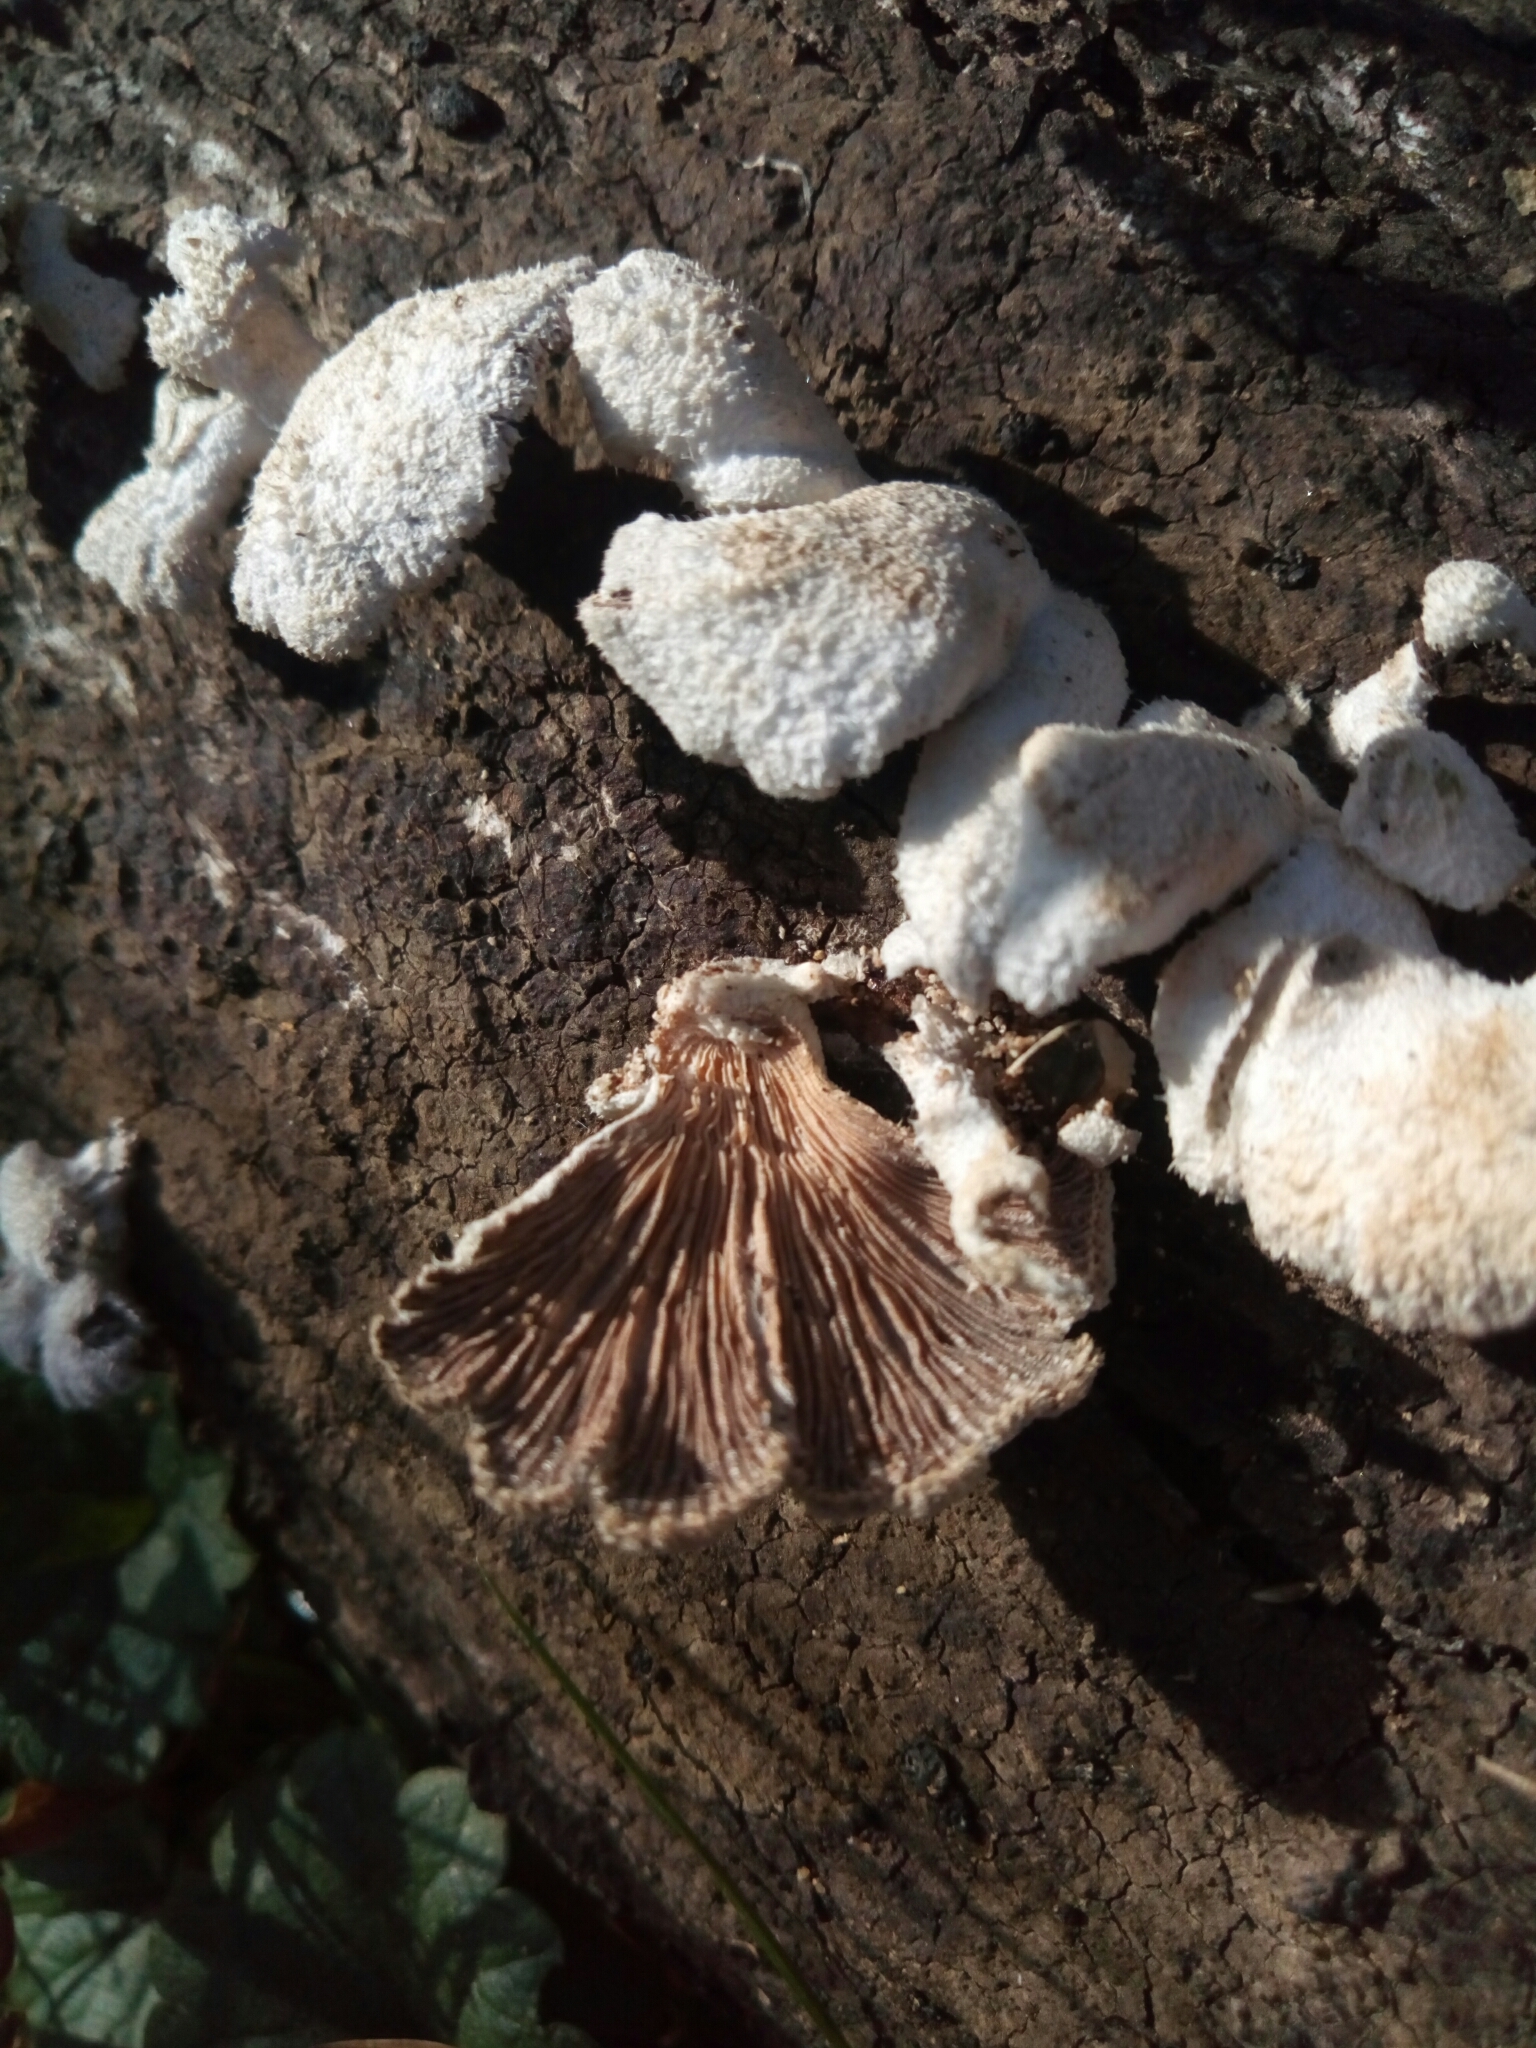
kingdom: Fungi
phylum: Basidiomycota
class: Agaricomycetes
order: Agaricales
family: Schizophyllaceae
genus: Schizophyllum
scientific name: Schizophyllum commune
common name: Common porecrust
